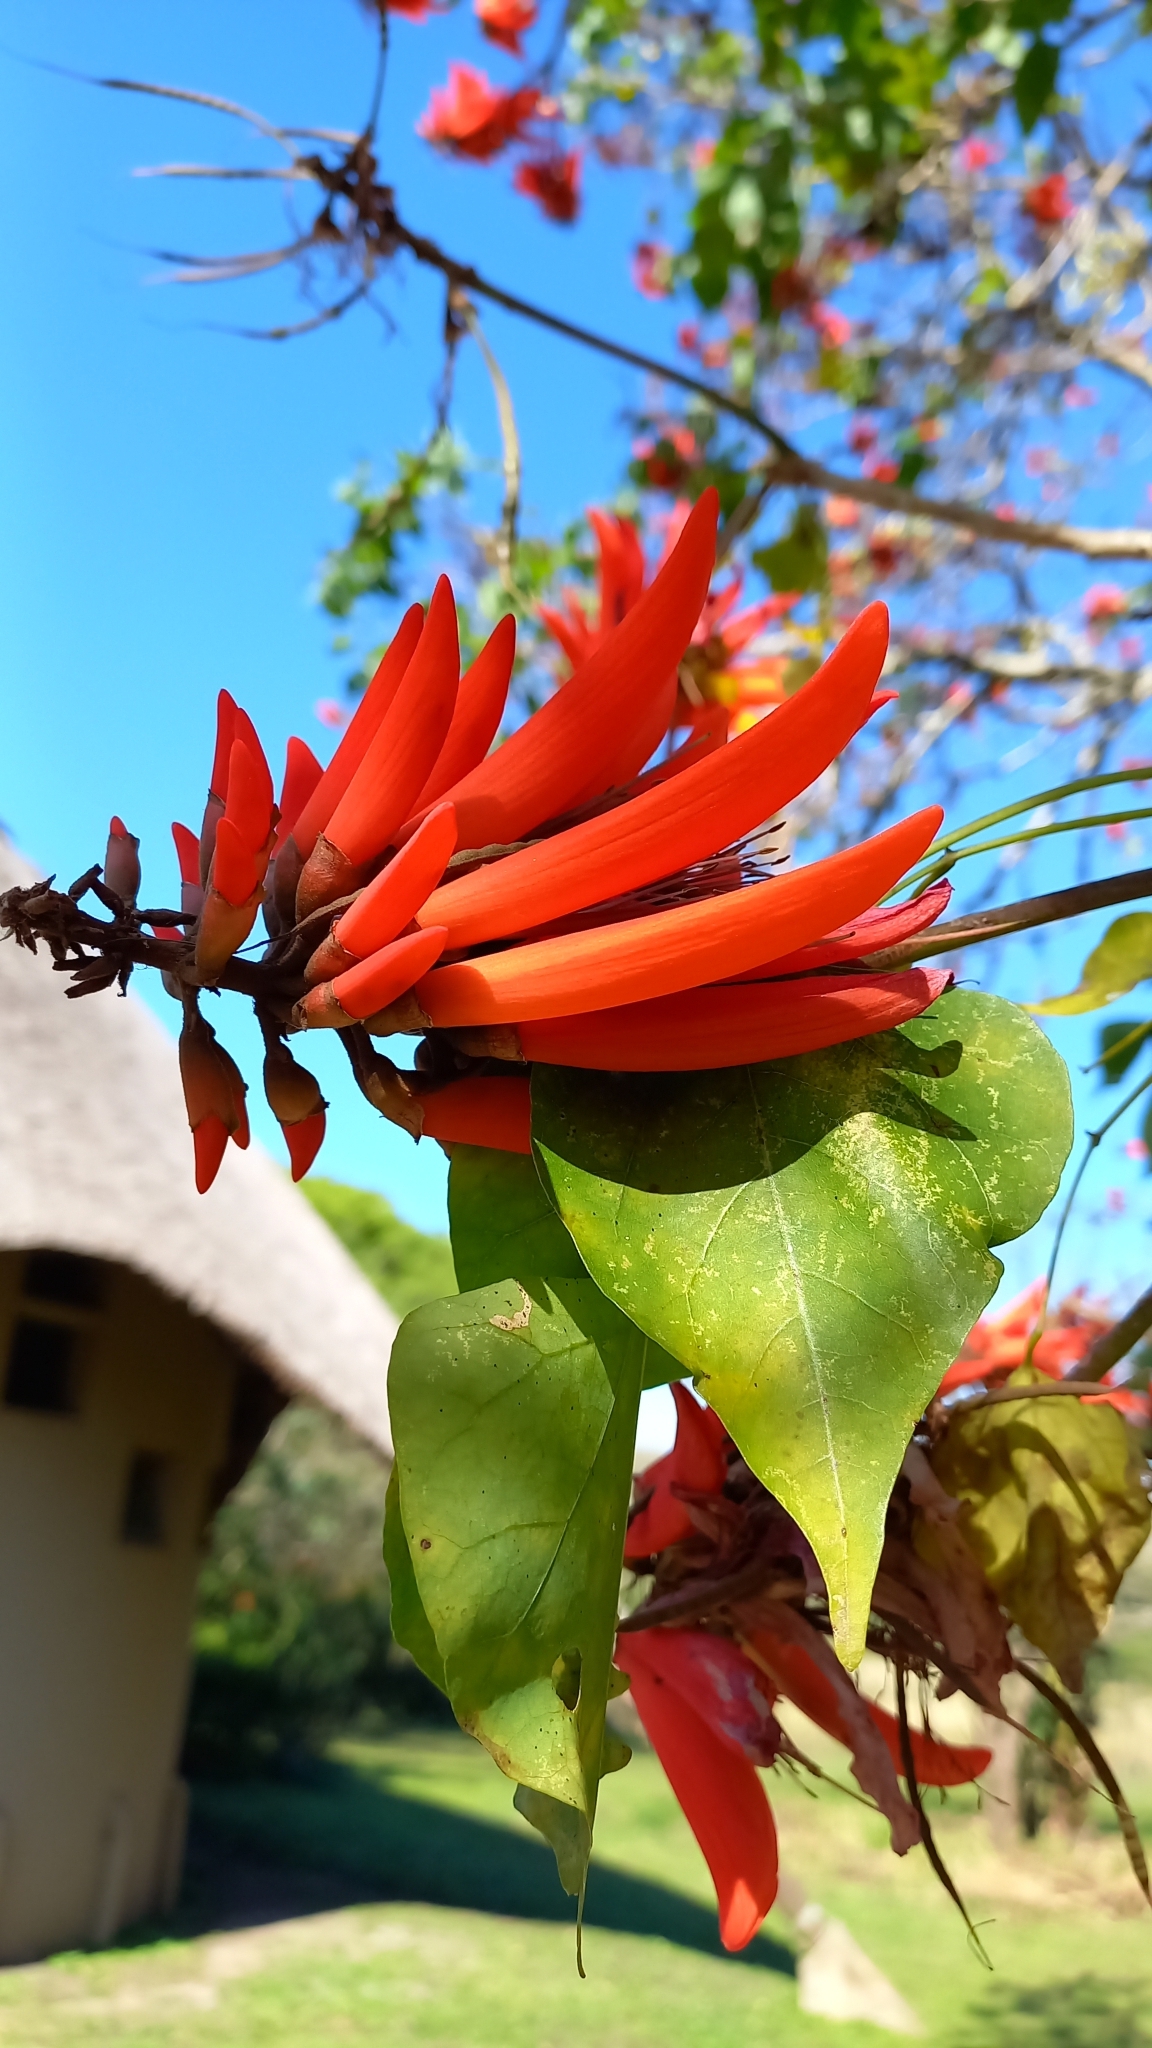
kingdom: Plantae
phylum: Tracheophyta
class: Magnoliopsida
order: Fabales
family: Fabaceae
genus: Erythrina
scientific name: Erythrina lysistemon
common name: Common coral tree
